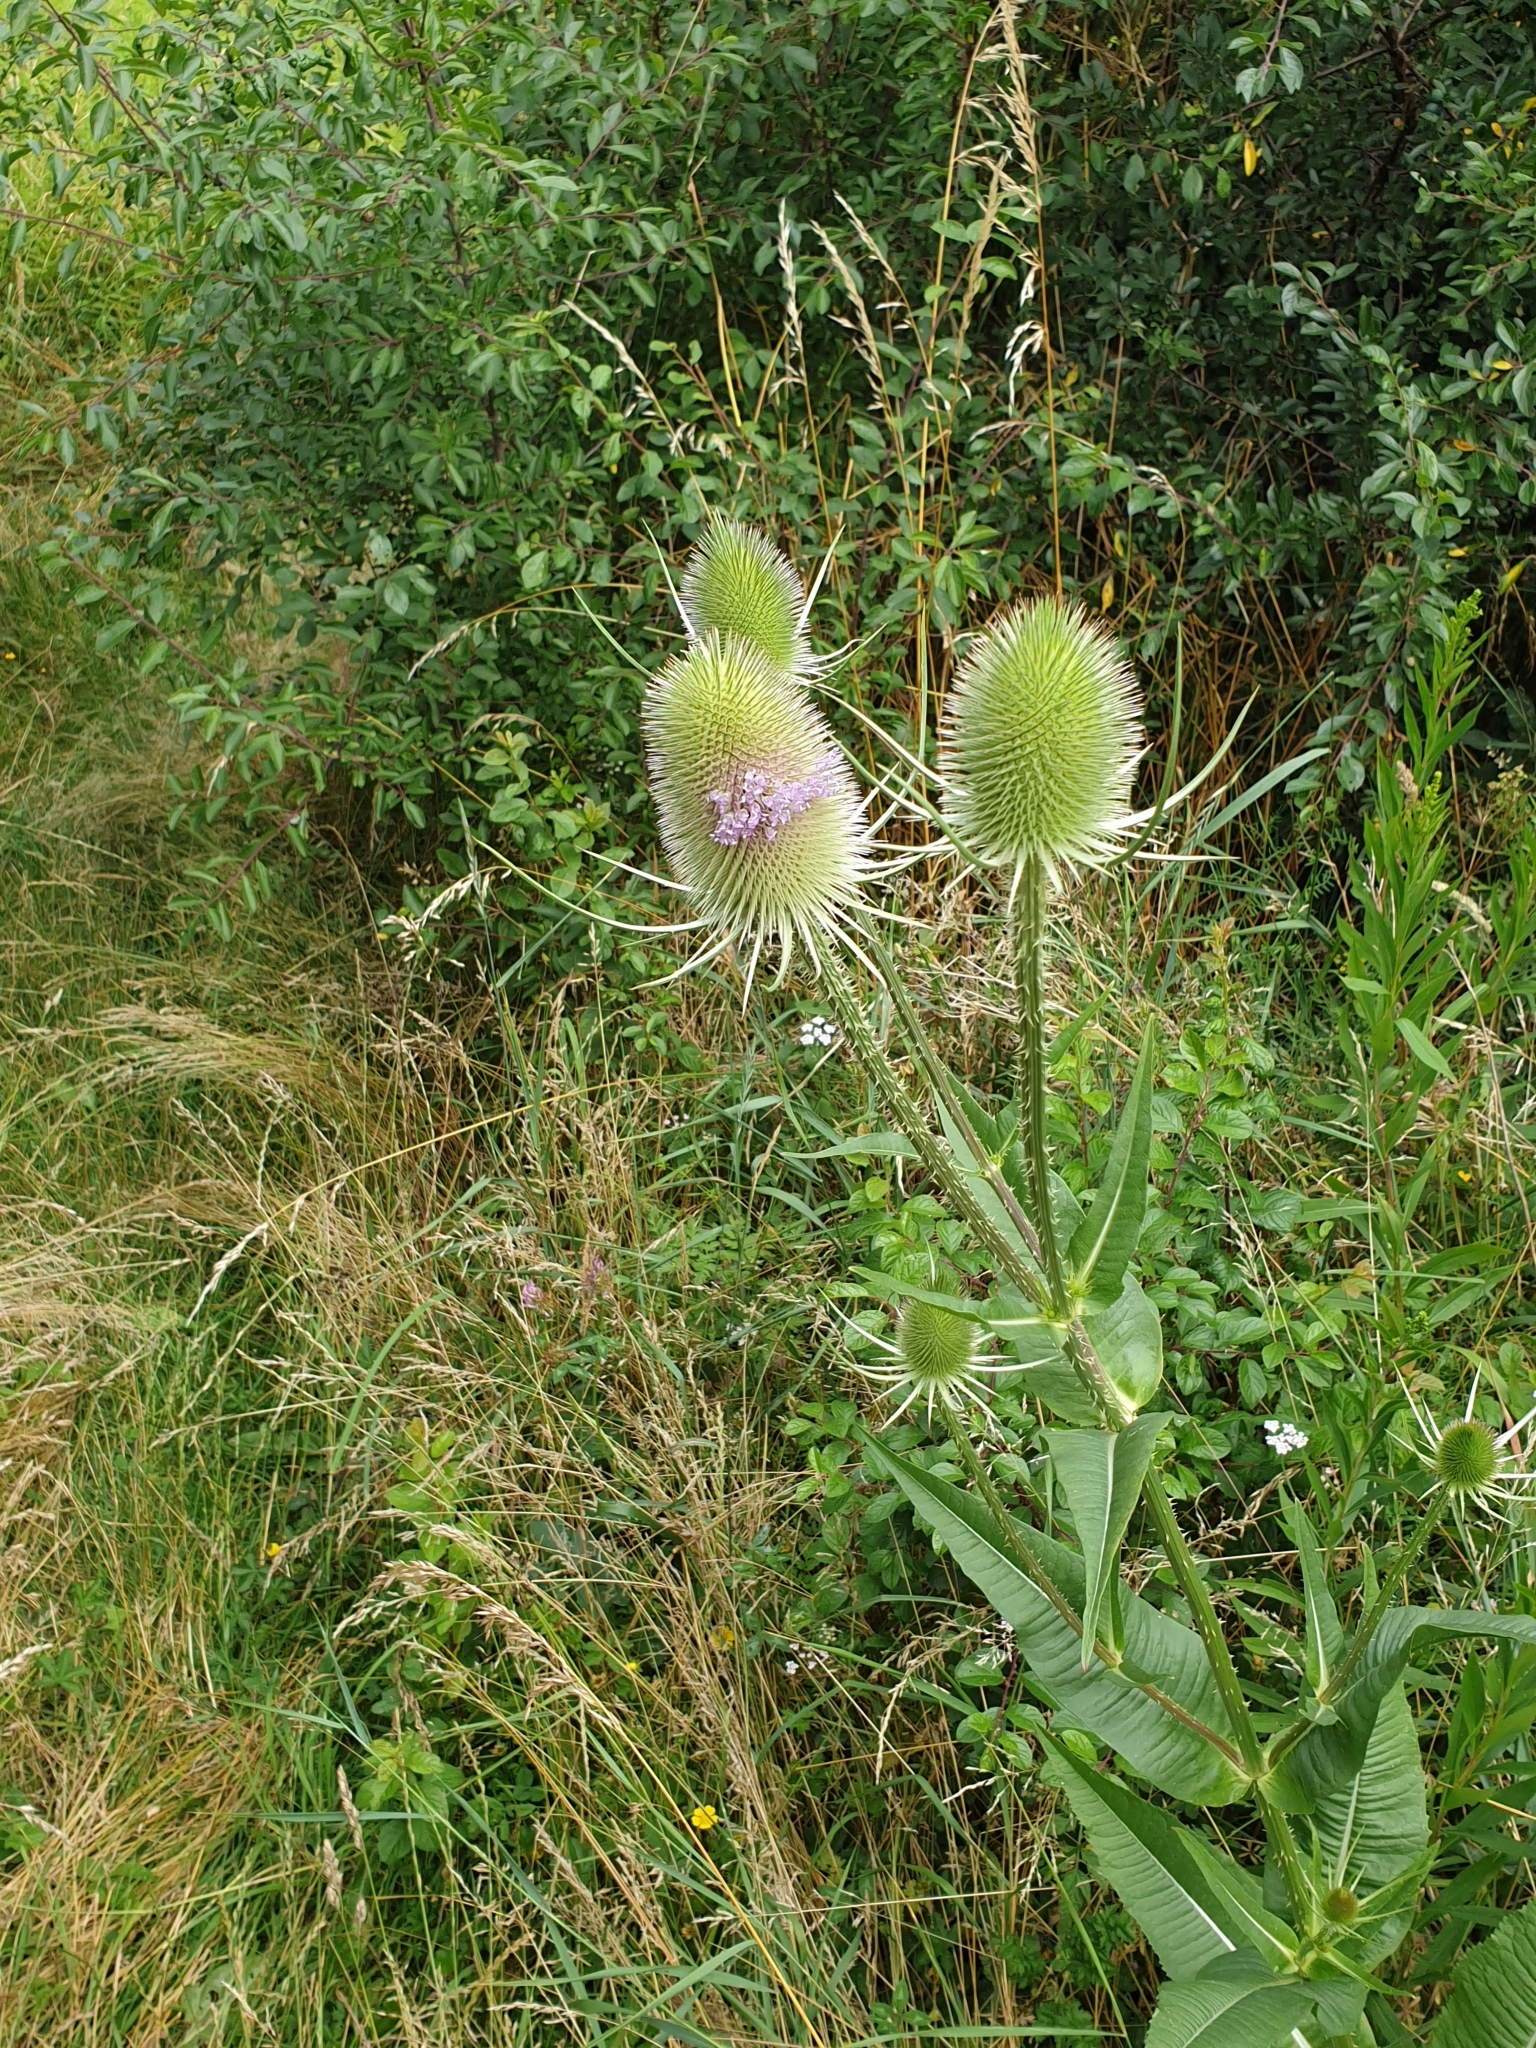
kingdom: Plantae
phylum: Tracheophyta
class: Magnoliopsida
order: Dipsacales
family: Caprifoliaceae
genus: Dipsacus
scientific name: Dipsacus fullonum
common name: Teasel
